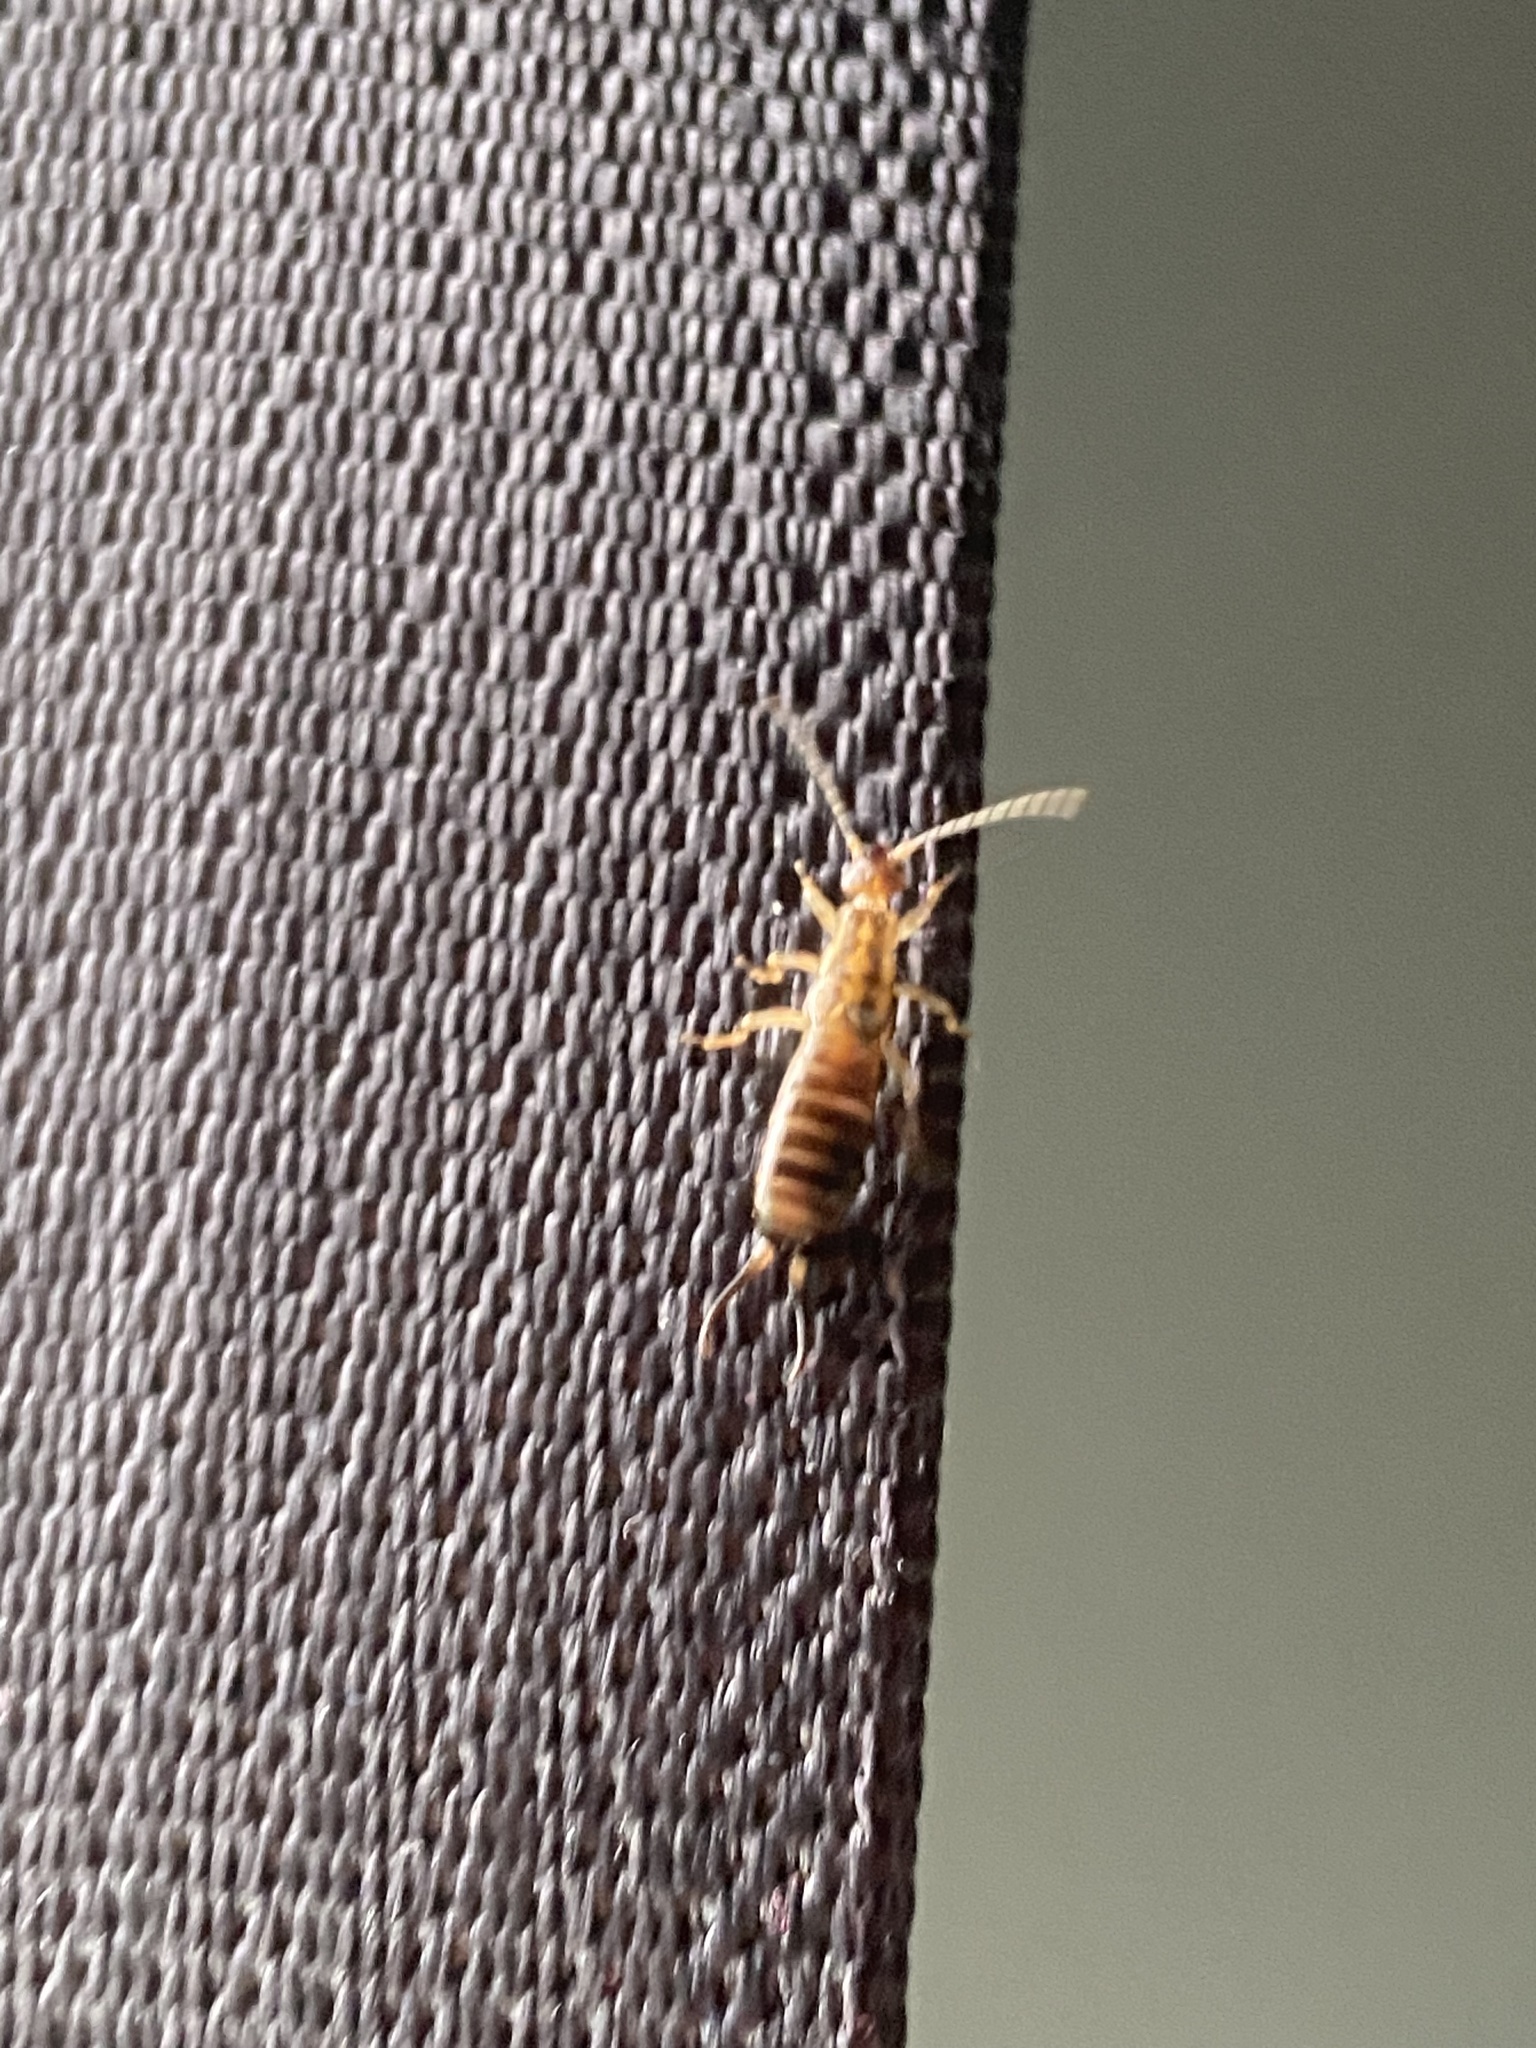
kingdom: Animalia
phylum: Arthropoda
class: Insecta
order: Dermaptera
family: Forficulidae
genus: Forficula
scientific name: Forficula
